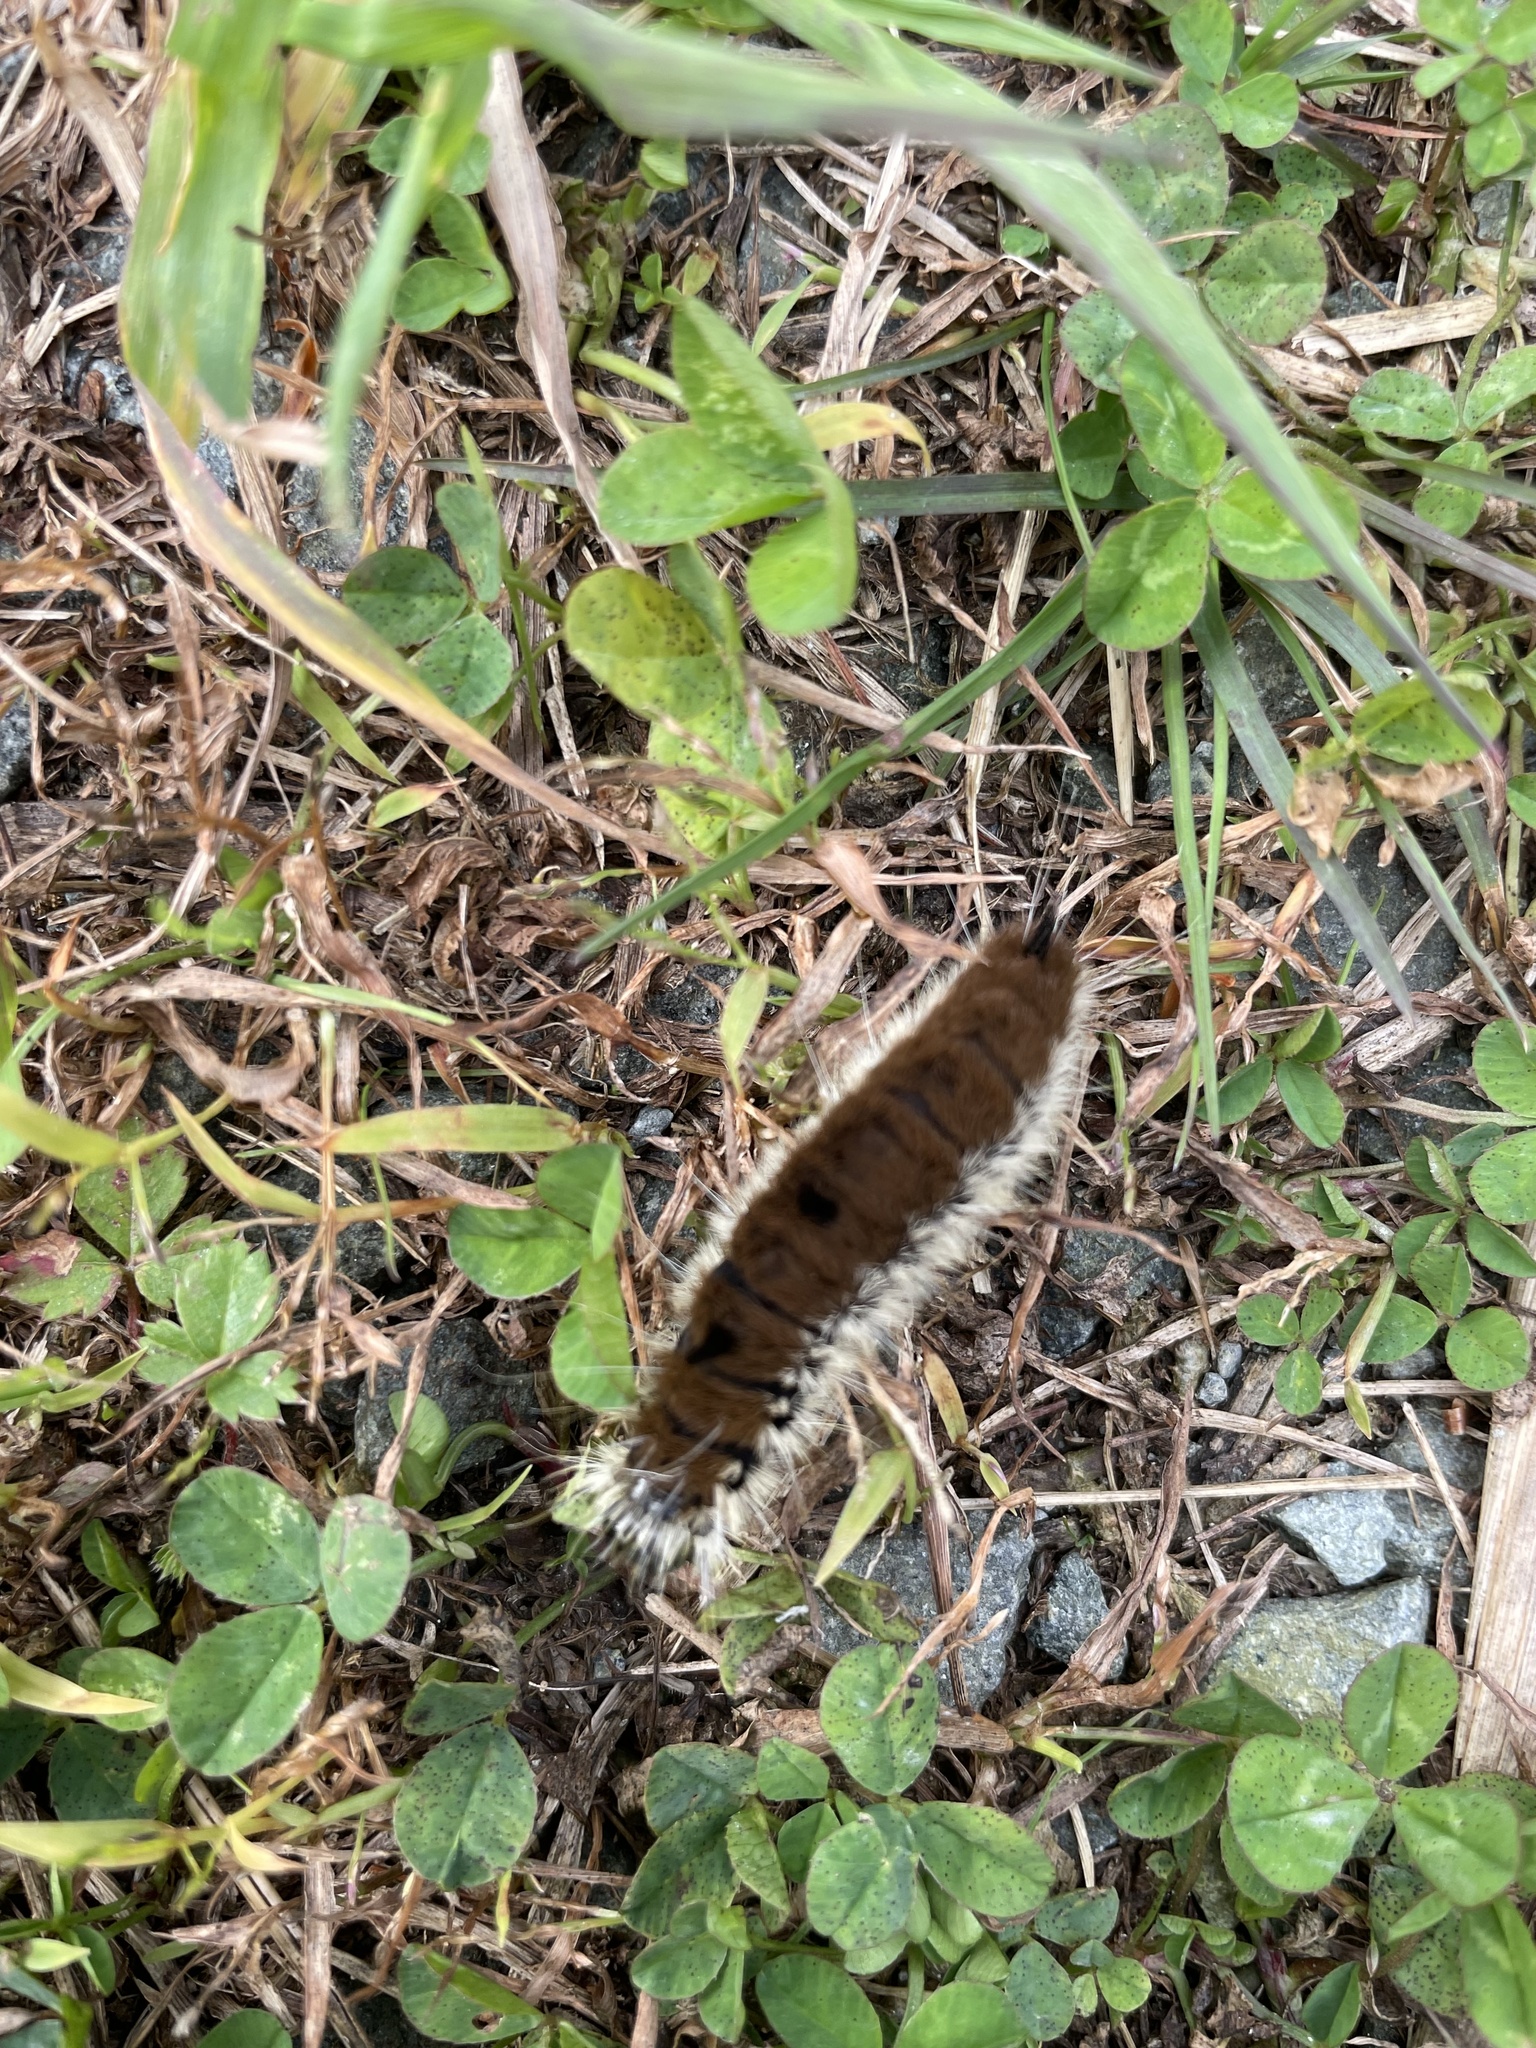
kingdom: Animalia
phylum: Arthropoda
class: Insecta
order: Lepidoptera
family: Noctuidae
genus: Acronicta
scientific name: Acronicta insita
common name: Large gray dagger
